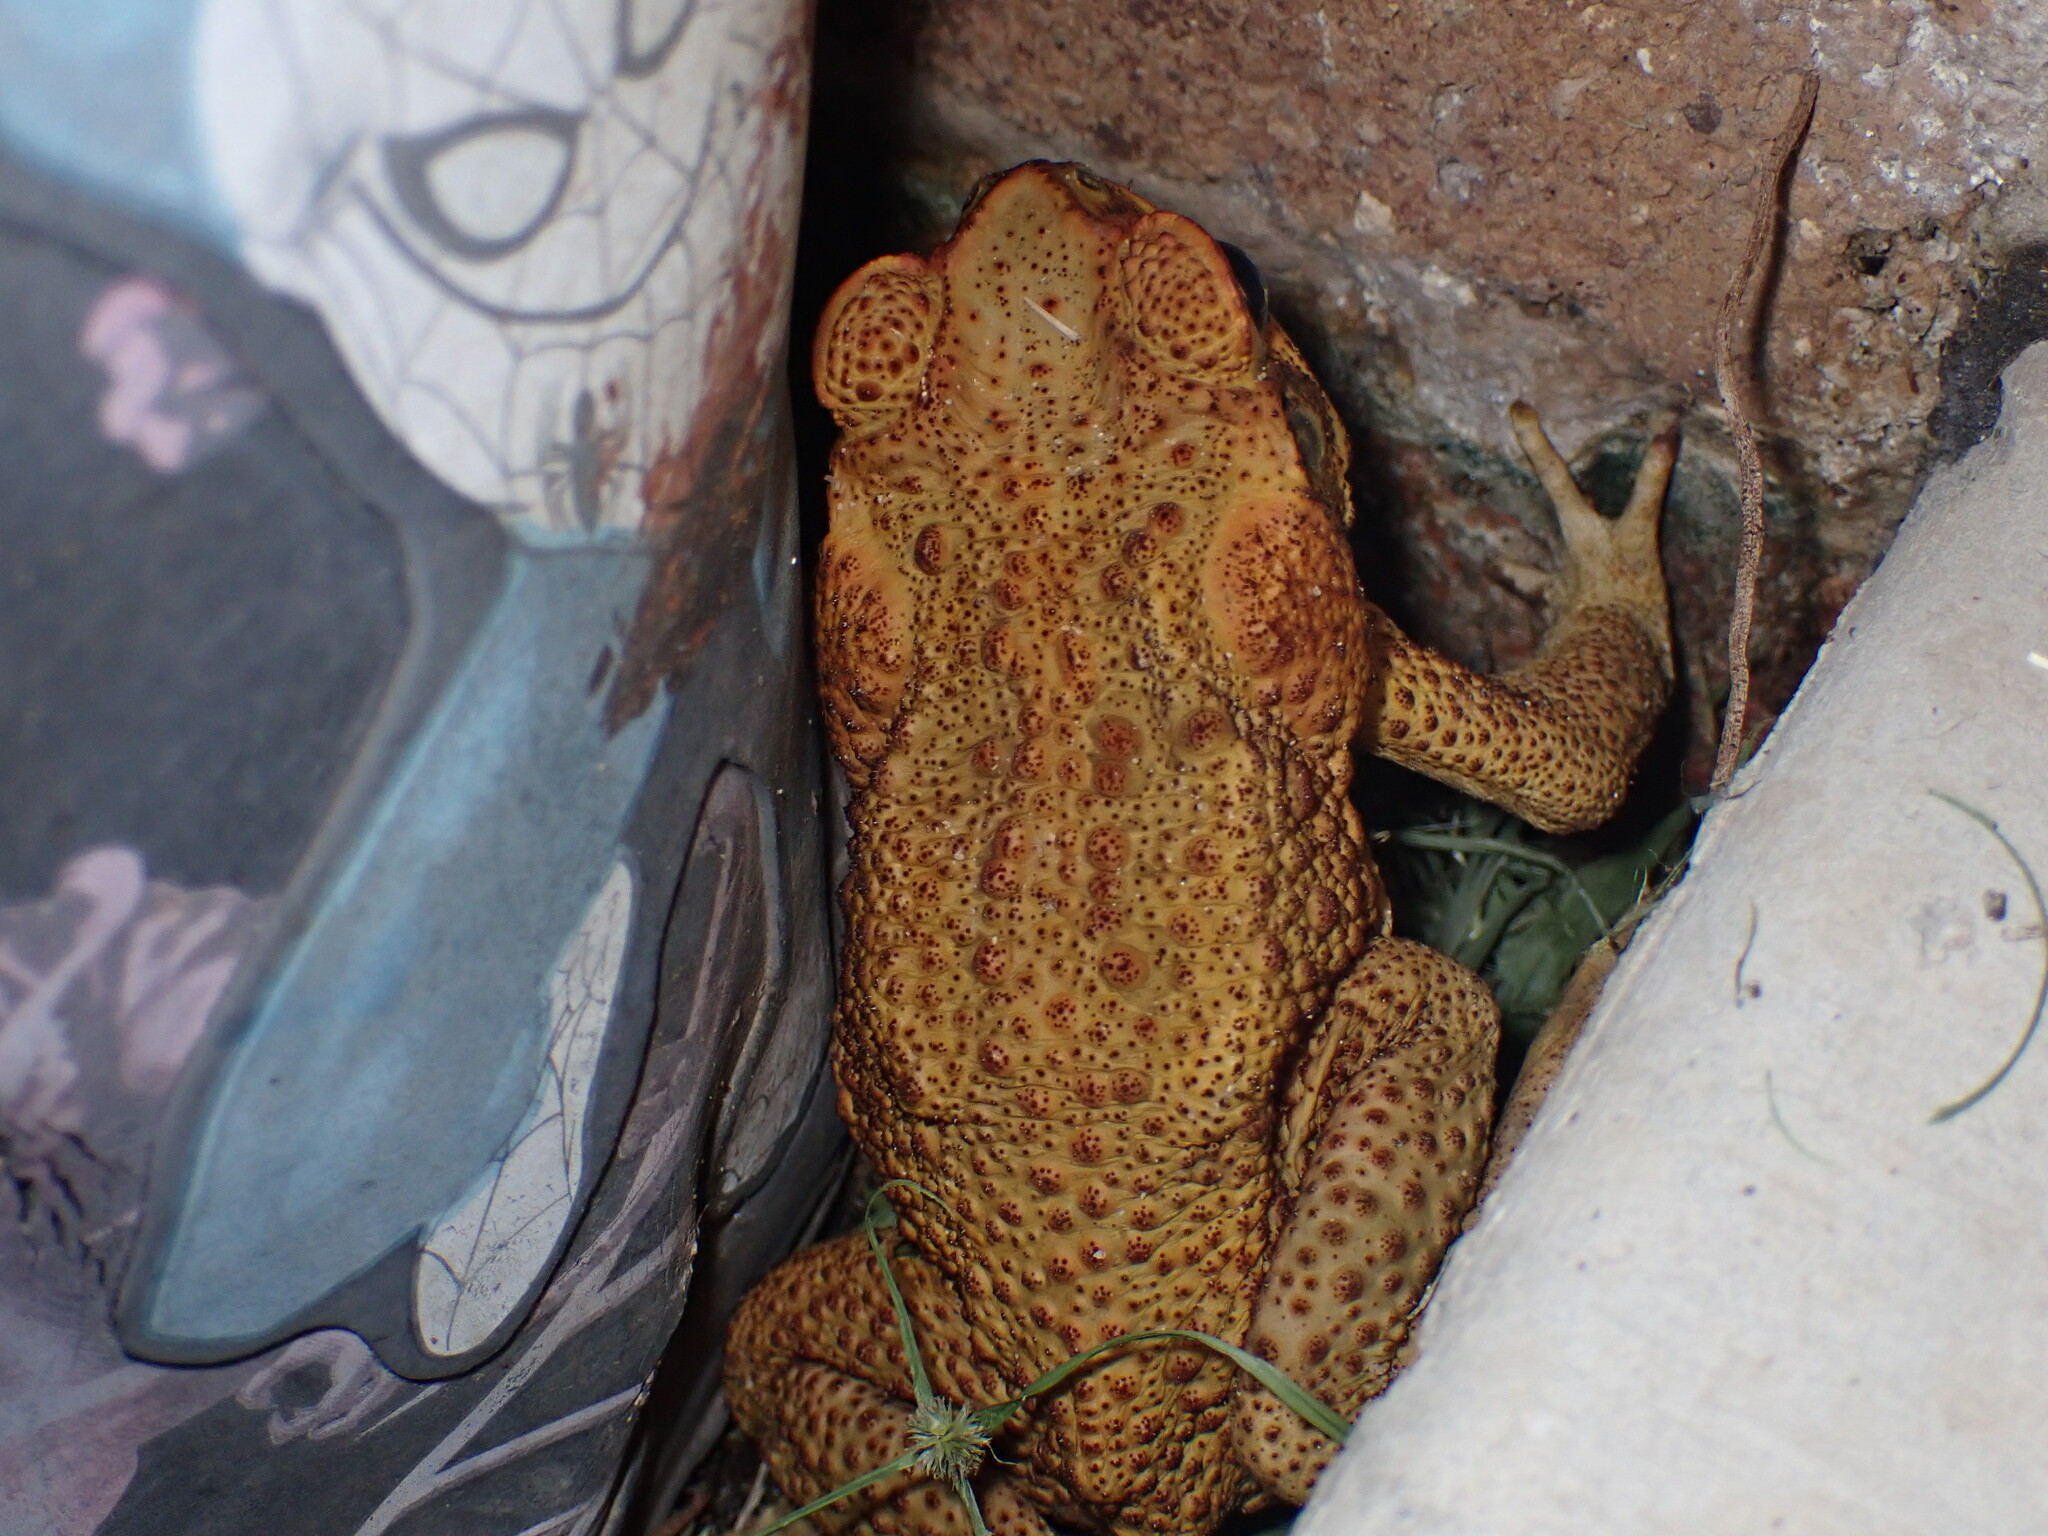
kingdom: Animalia
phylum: Chordata
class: Amphibia
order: Anura
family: Bufonidae
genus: Rhinella
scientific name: Rhinella marina
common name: Cane toad
